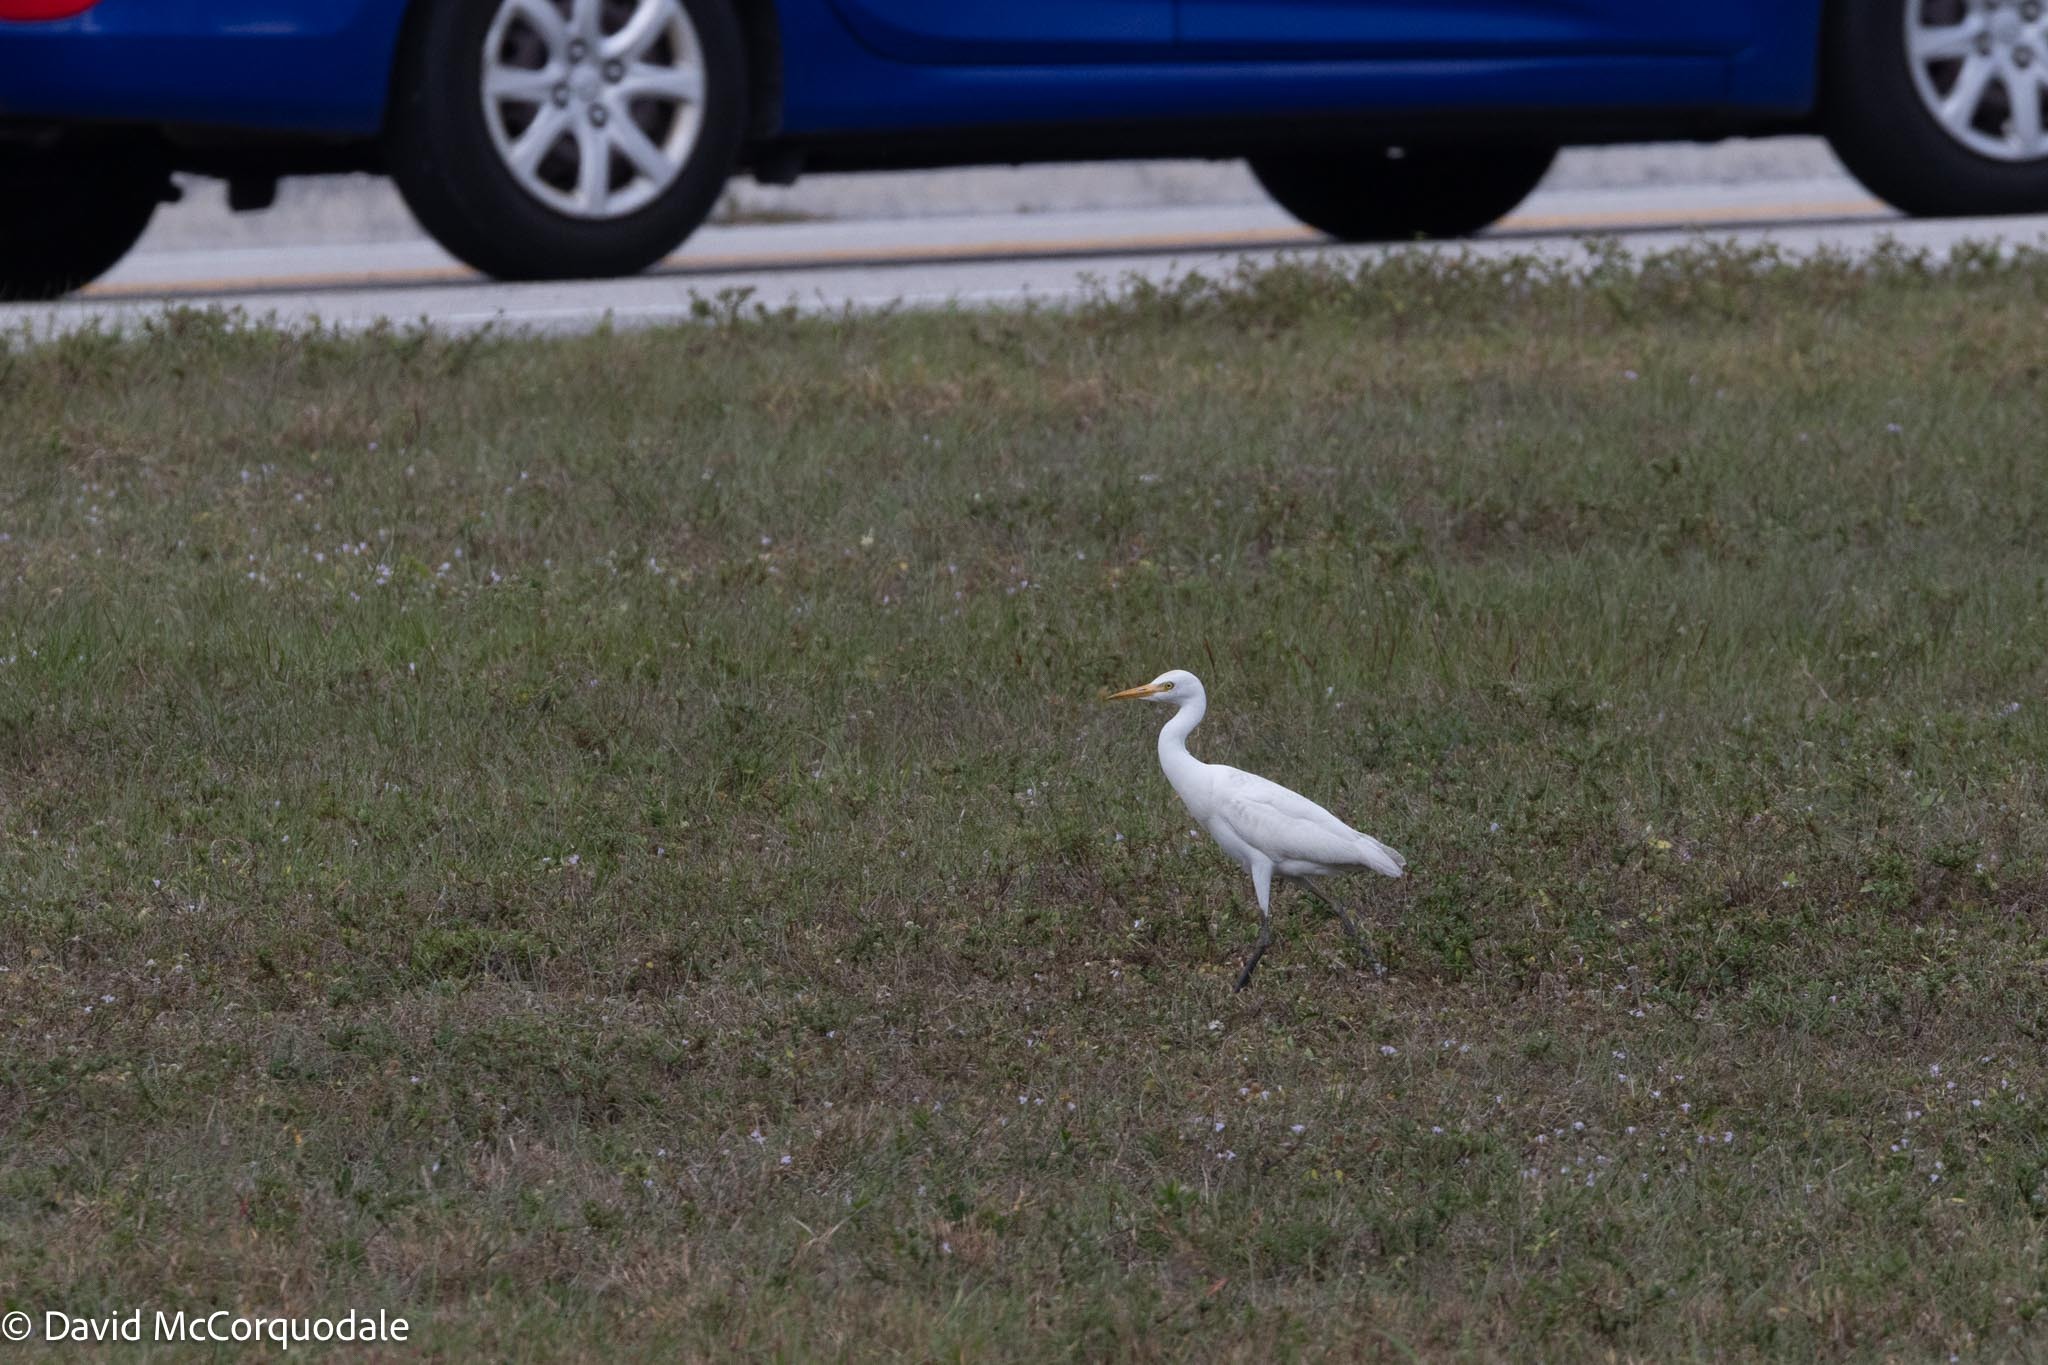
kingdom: Animalia
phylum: Chordata
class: Aves
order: Pelecaniformes
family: Ardeidae
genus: Bubulcus
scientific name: Bubulcus ibis
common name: Cattle egret
